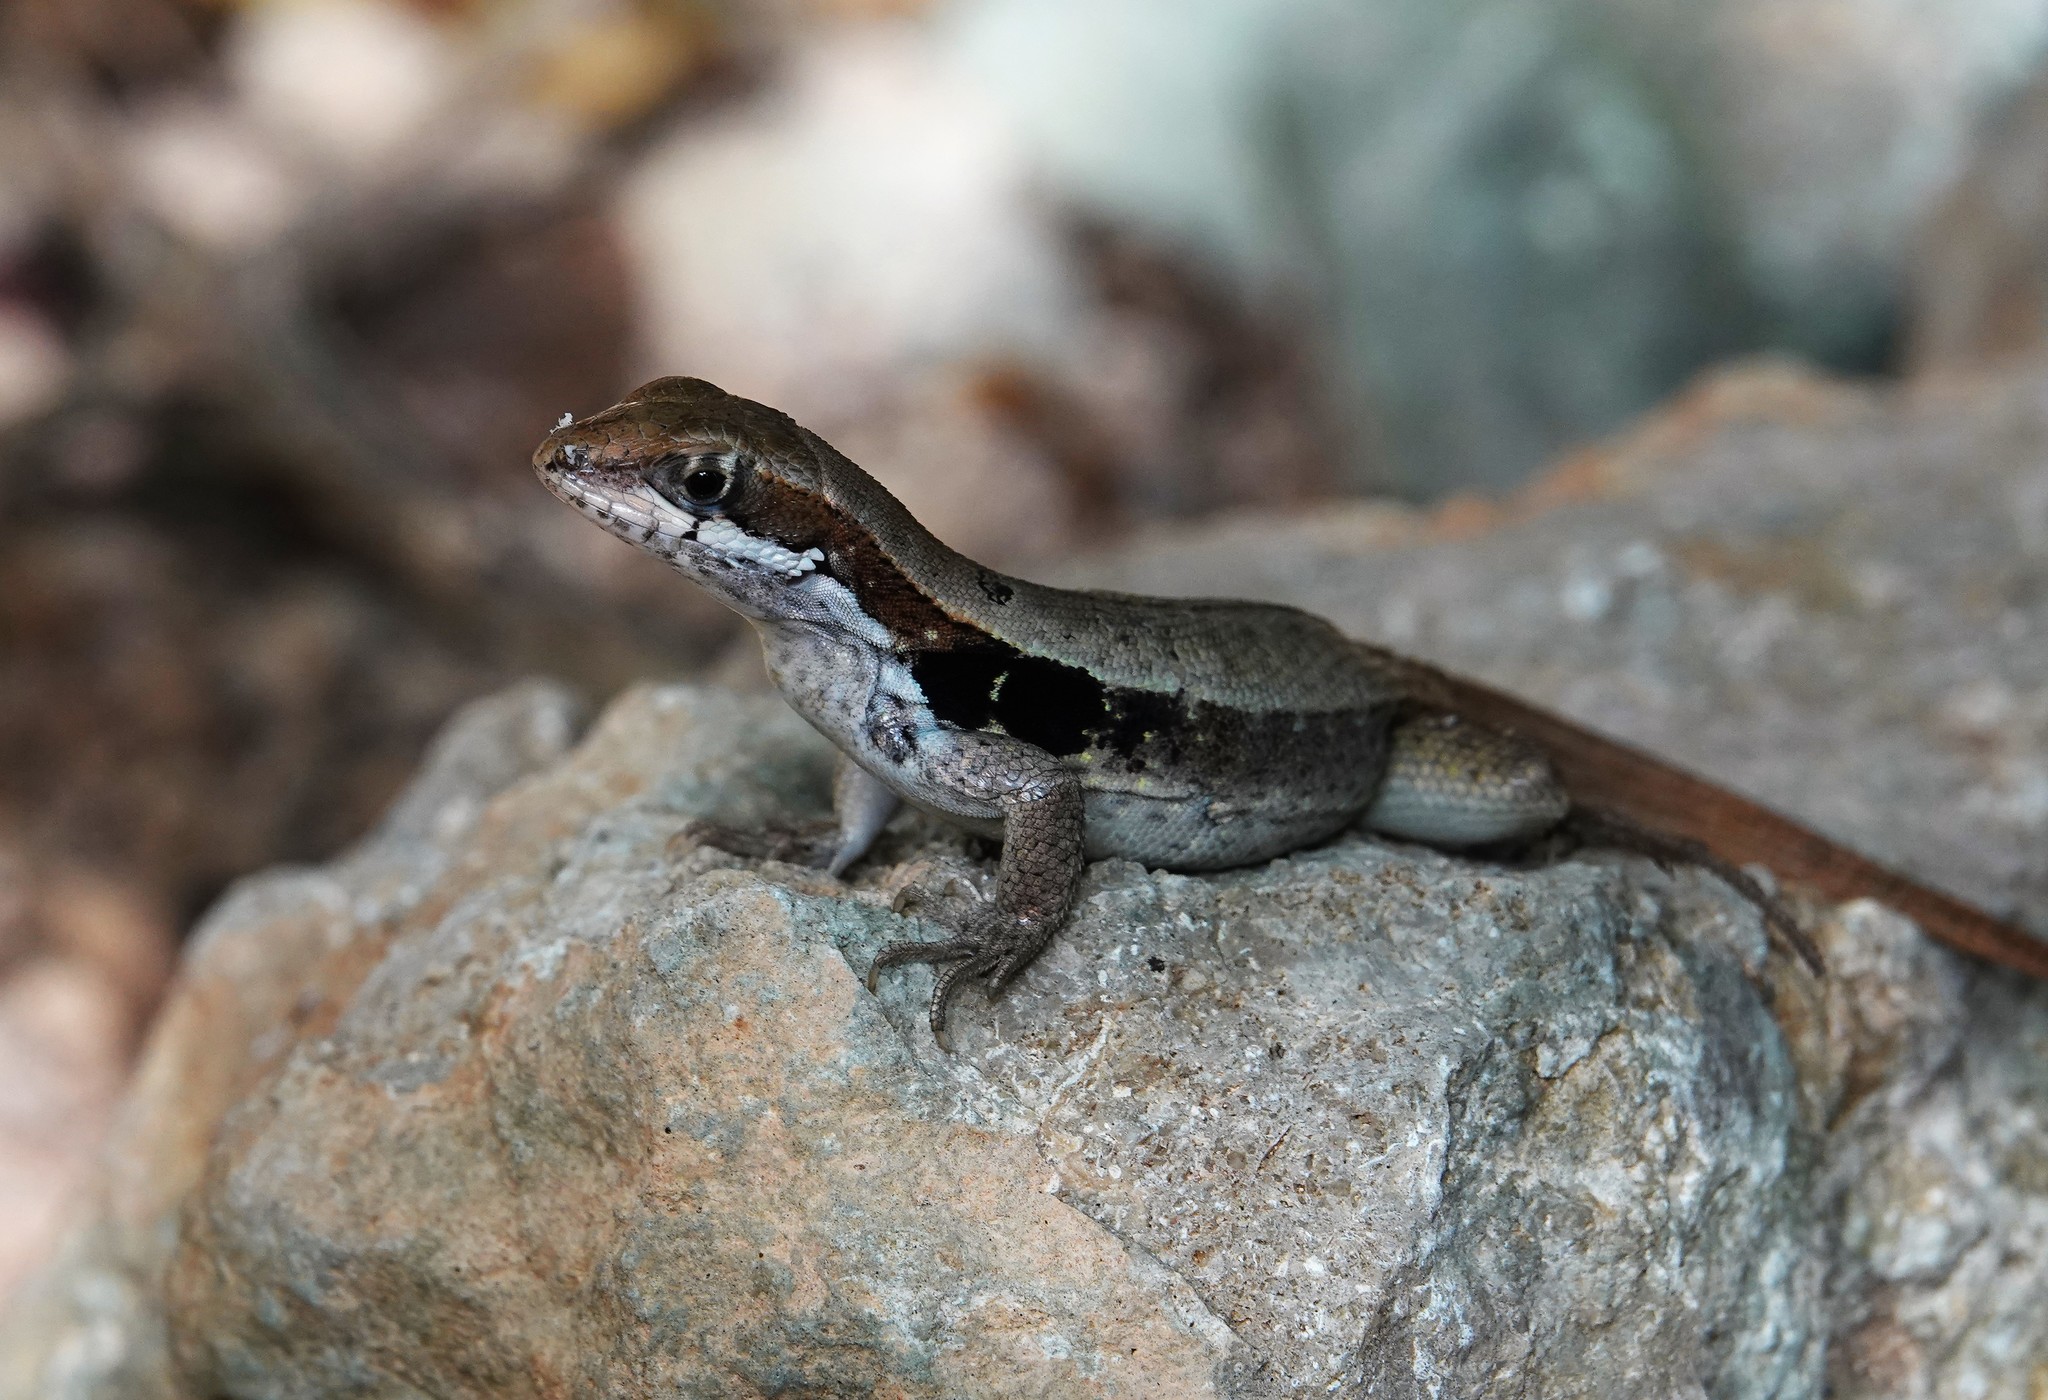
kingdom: Animalia
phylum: Chordata
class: Squamata
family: Leiocephalidae
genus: Leiocephalus
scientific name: Leiocephalus macropus
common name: Monte verde curlytail lizard
